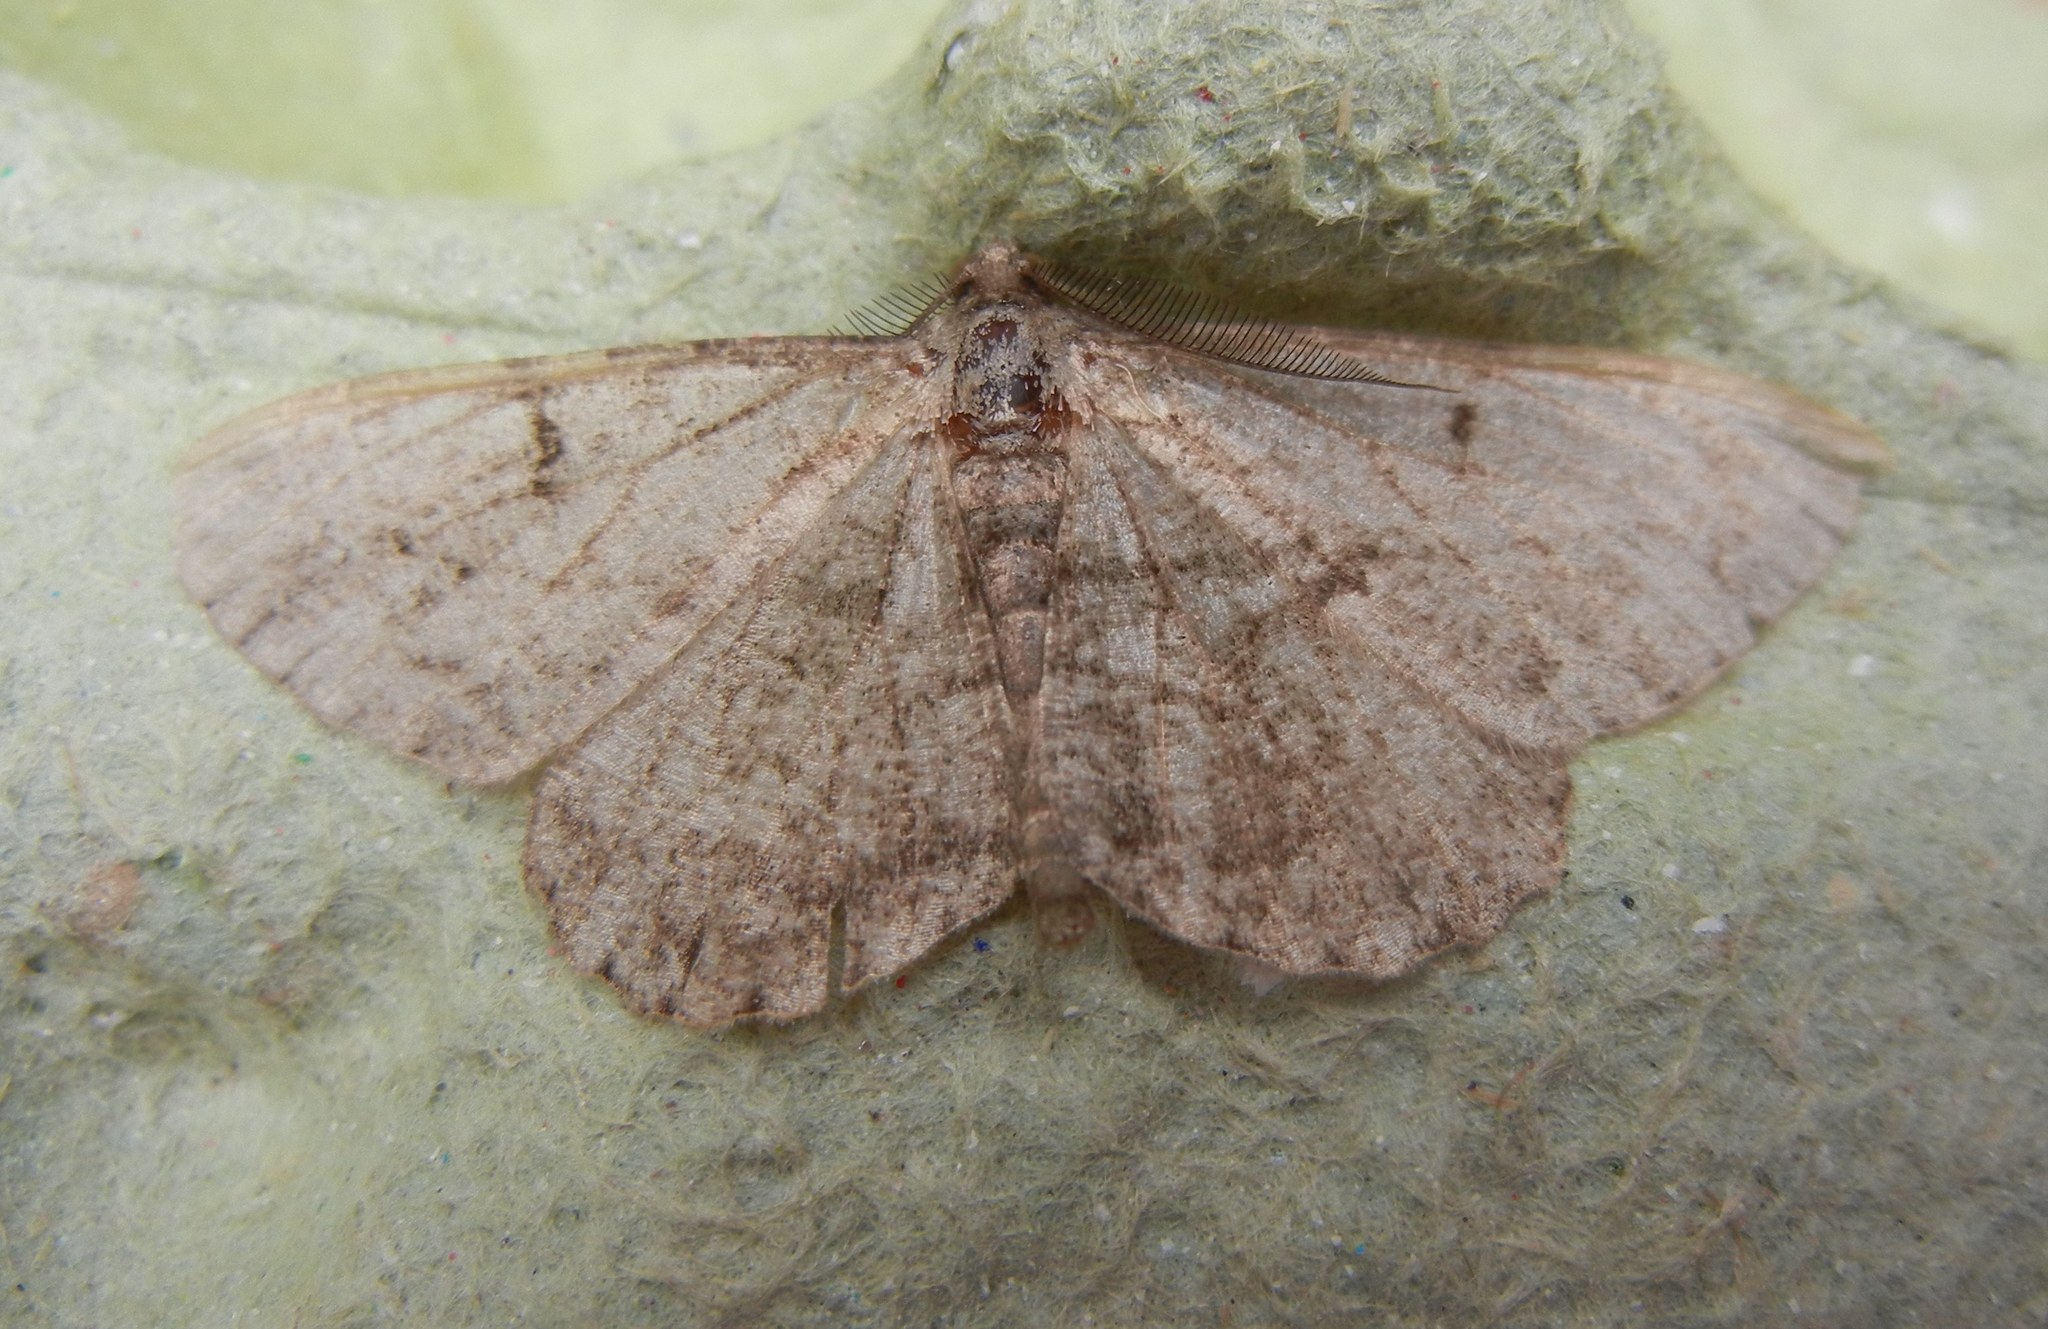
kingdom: Animalia
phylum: Arthropoda
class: Insecta
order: Lepidoptera
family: Geometridae
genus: Peribatodes
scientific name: Peribatodes rhomboidaria
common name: Willow beauty
